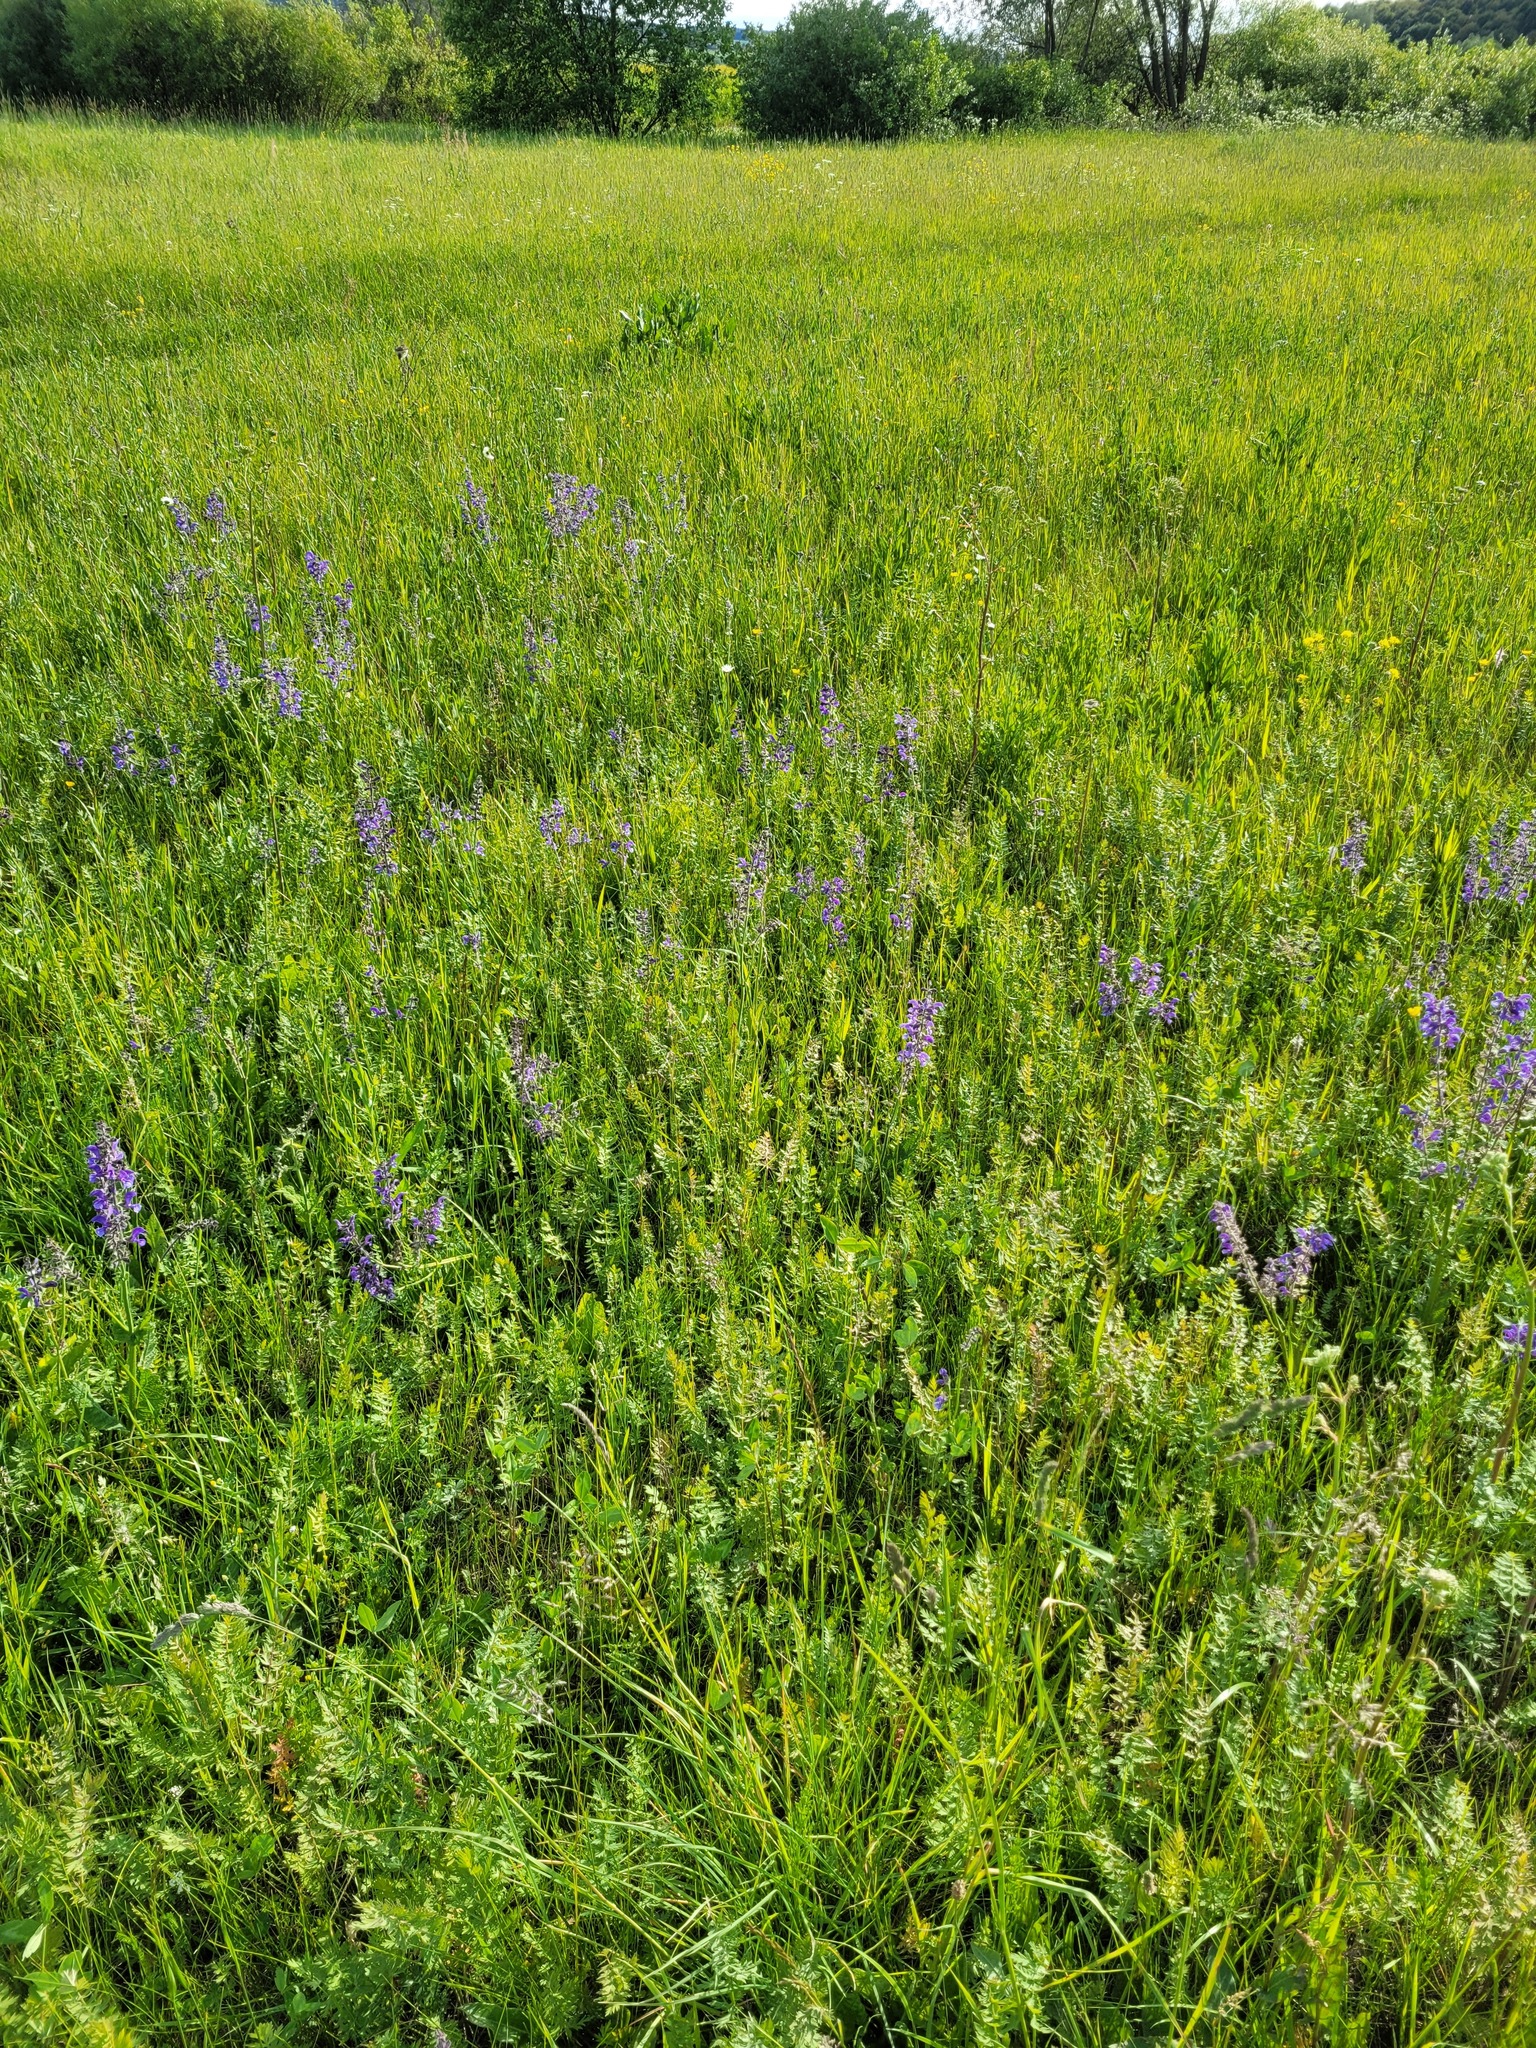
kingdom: Plantae
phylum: Tracheophyta
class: Magnoliopsida
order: Lamiales
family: Lamiaceae
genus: Salvia
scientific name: Salvia pratensis
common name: Meadow sage
